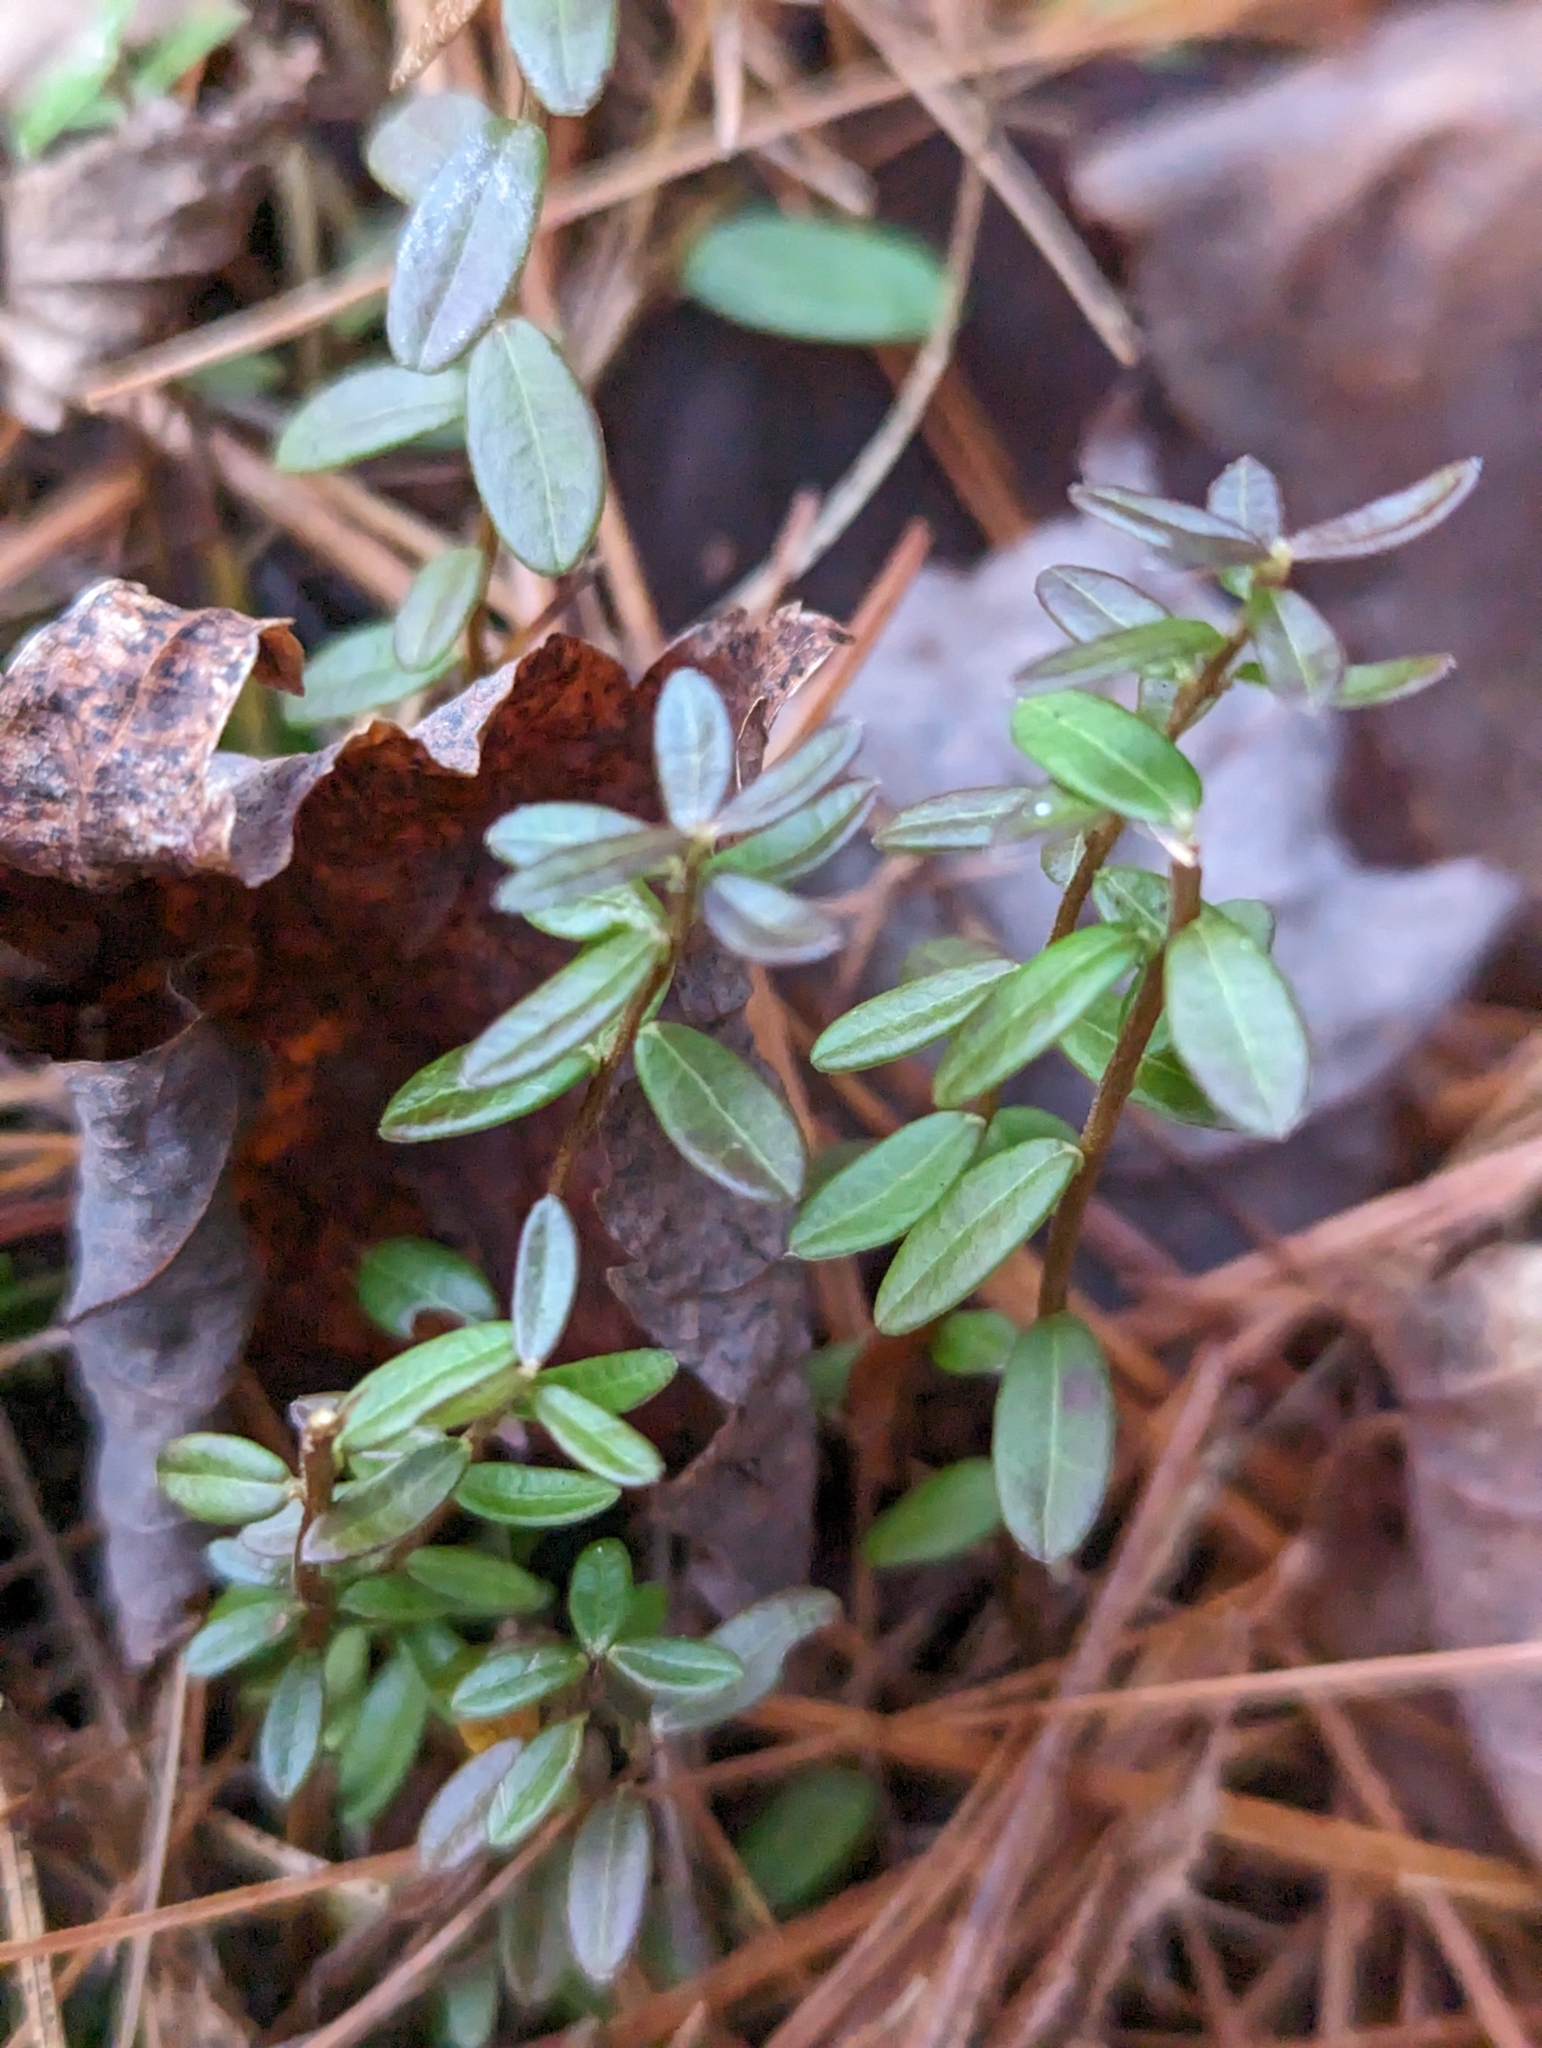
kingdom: Plantae
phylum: Tracheophyta
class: Magnoliopsida
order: Ericales
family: Ericaceae
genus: Vaccinium
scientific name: Vaccinium macrocarpon
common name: American cranberry
